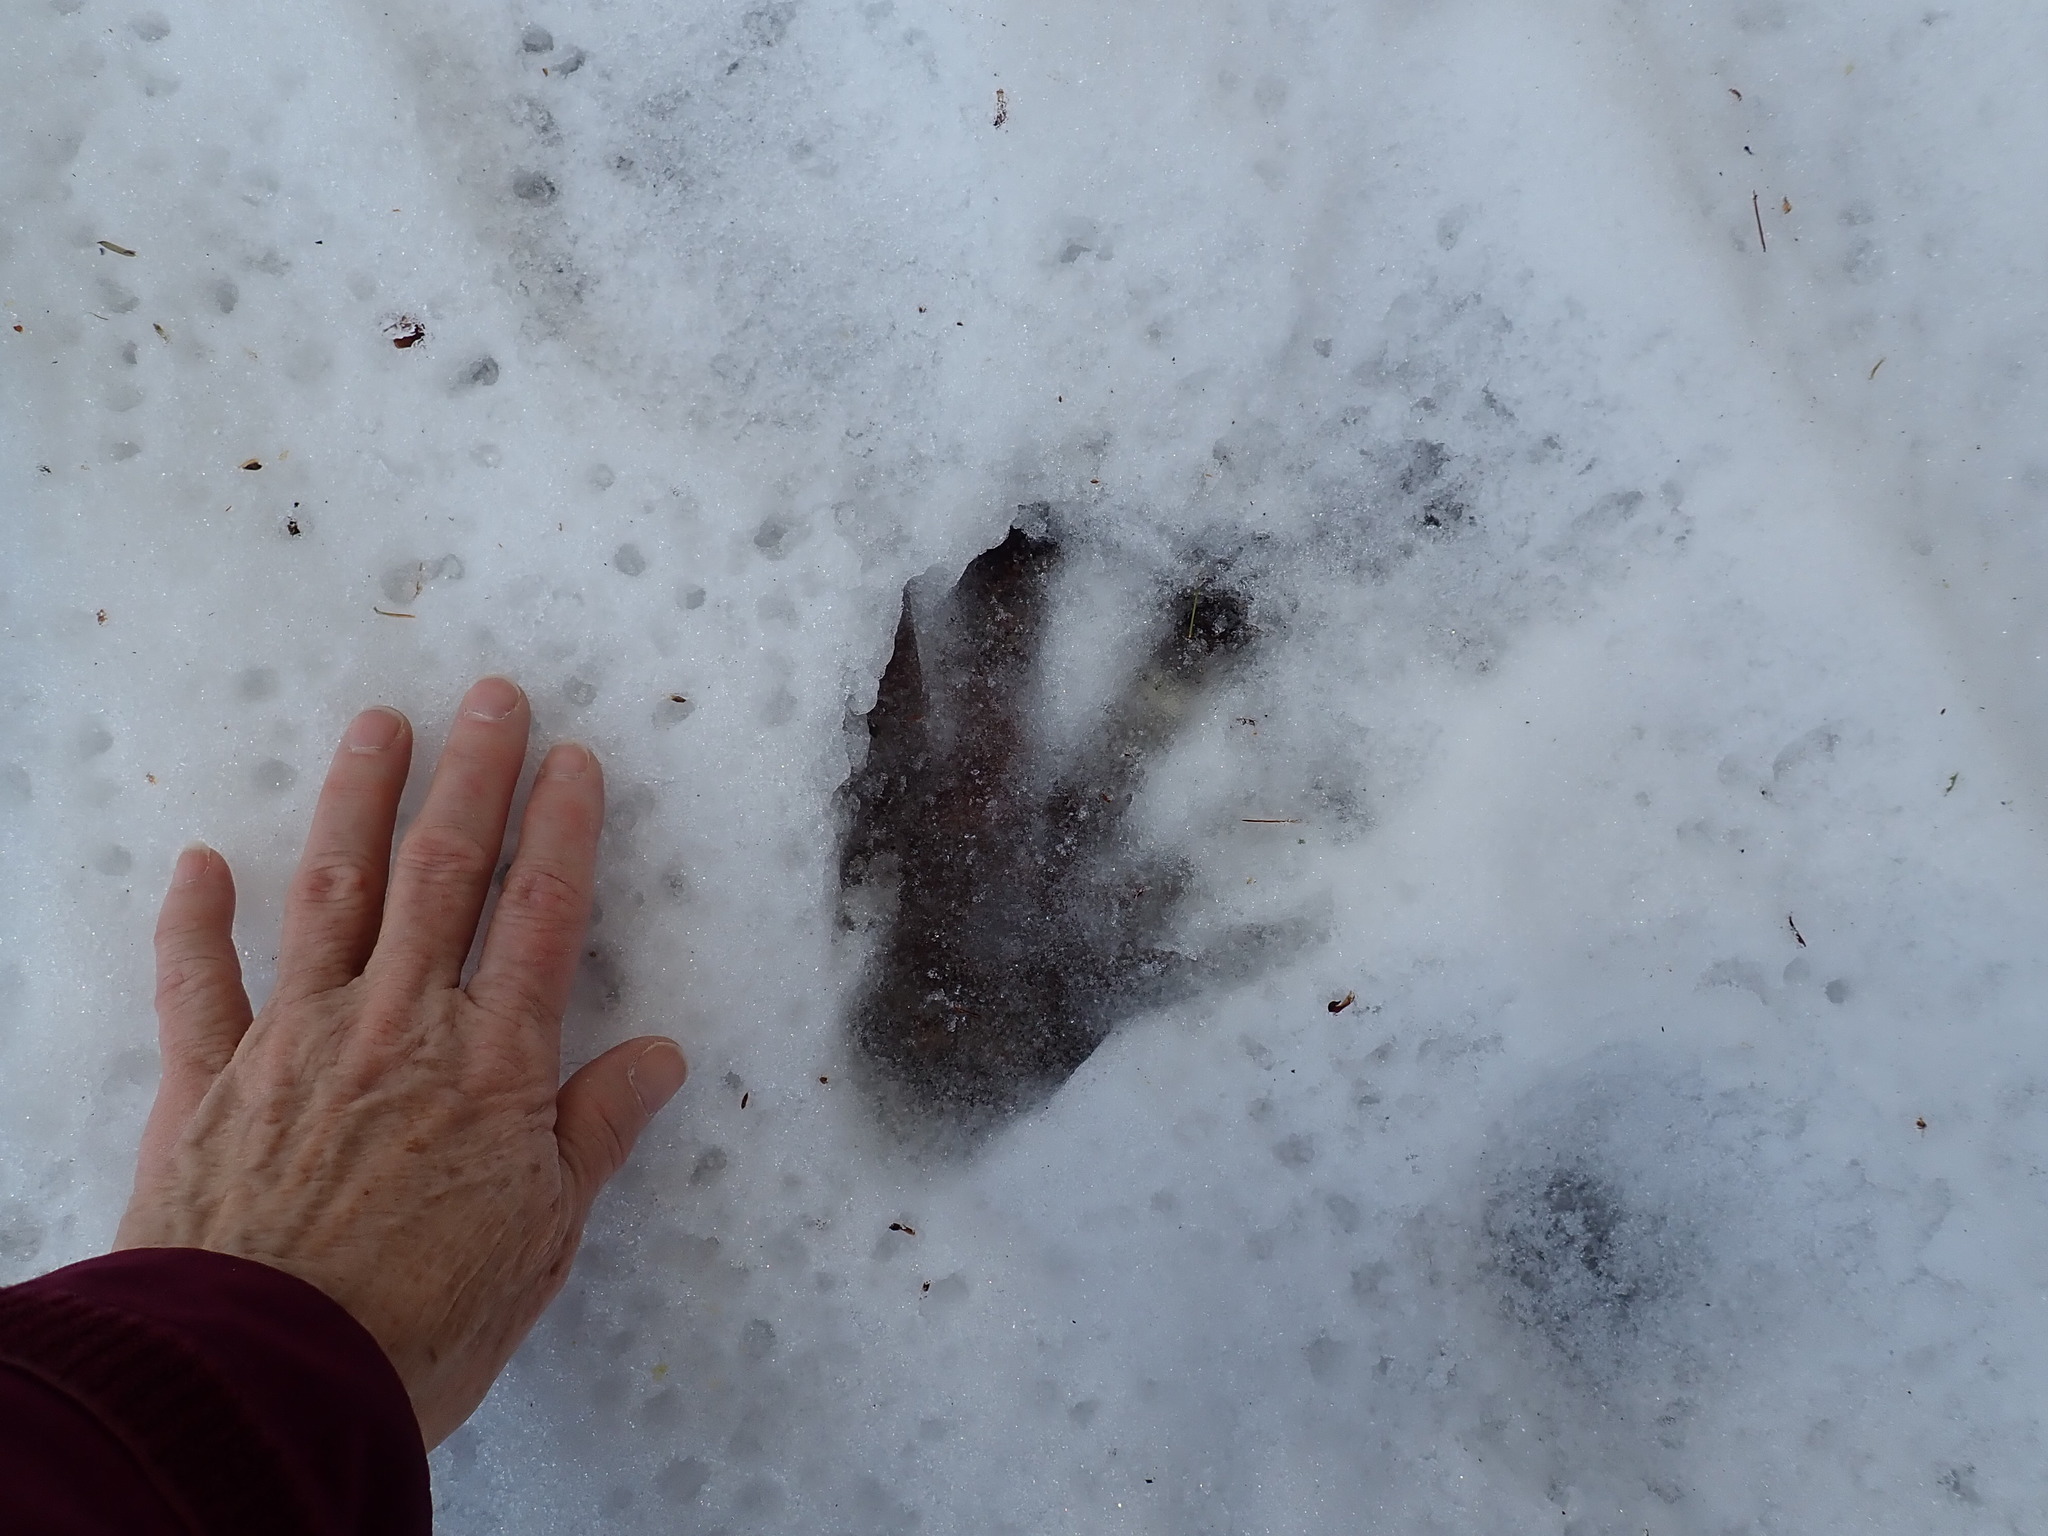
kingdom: Animalia
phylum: Chordata
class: Mammalia
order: Rodentia
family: Castoridae
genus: Castor
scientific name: Castor canadensis
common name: American beaver
